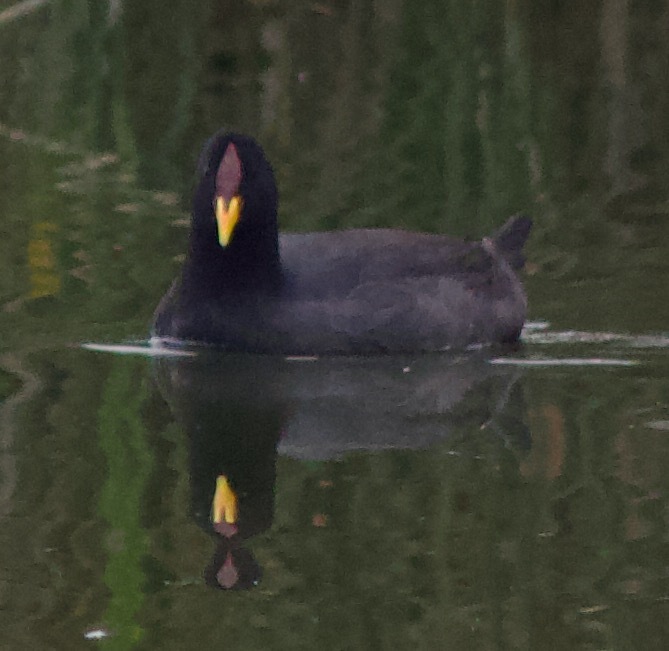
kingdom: Animalia
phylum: Chordata
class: Aves
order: Gruiformes
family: Rallidae
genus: Fulica
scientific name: Fulica rufifrons
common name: Red-fronted coot
